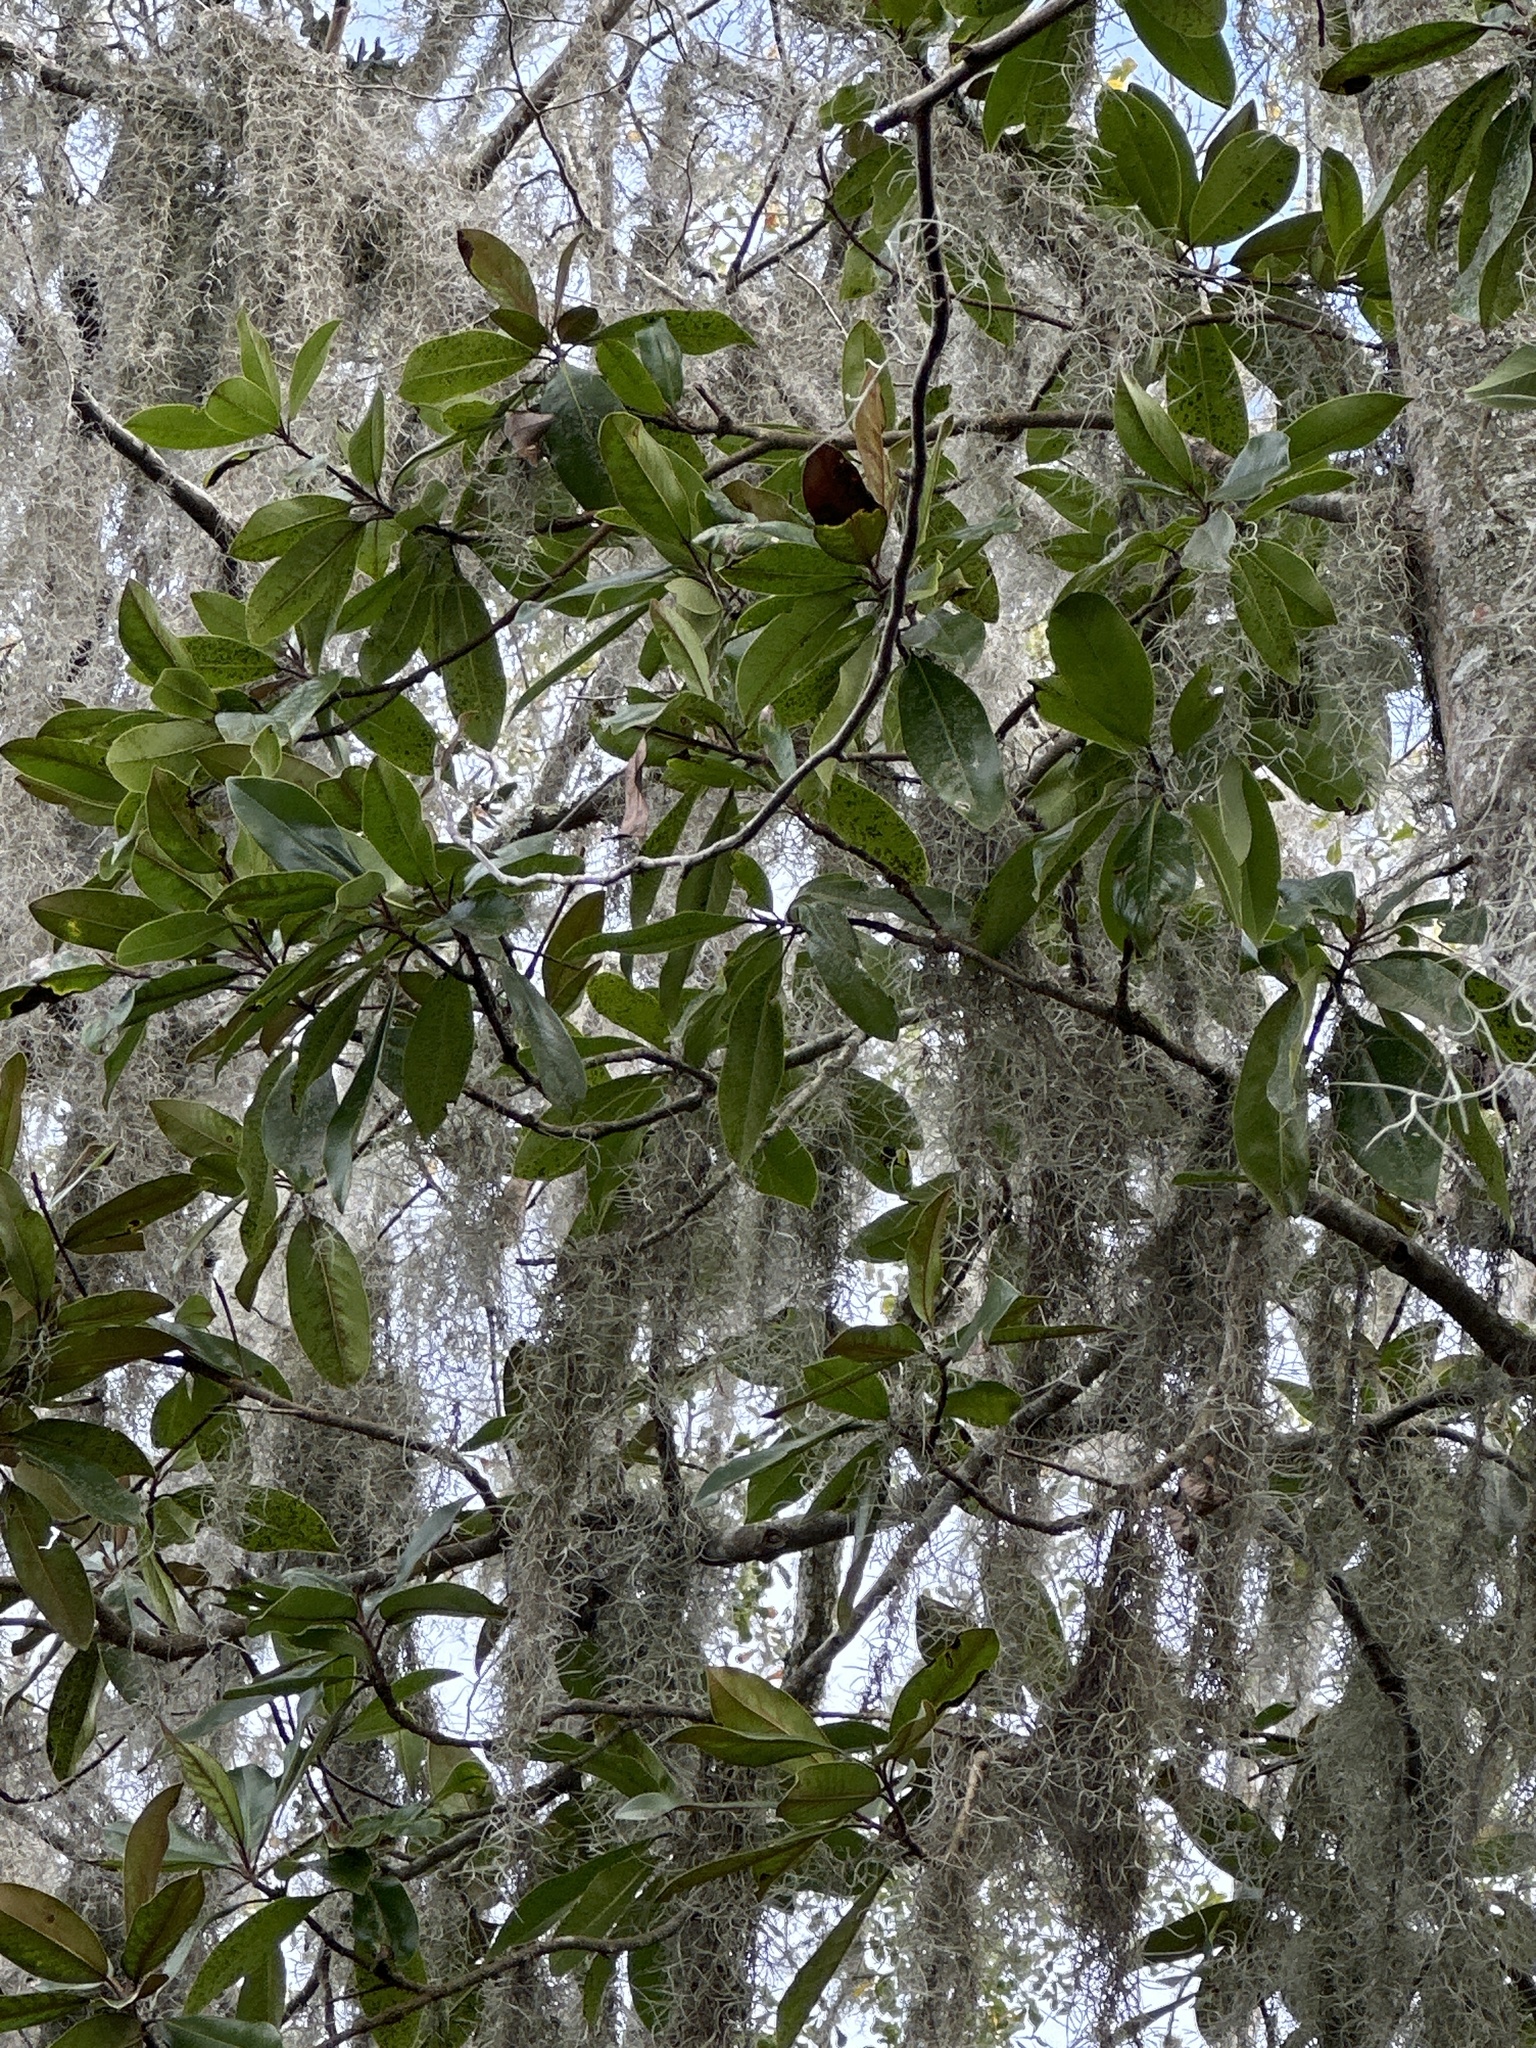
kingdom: Plantae
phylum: Tracheophyta
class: Magnoliopsida
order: Magnoliales
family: Magnoliaceae
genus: Magnolia
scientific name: Magnolia grandiflora
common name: Southern magnolia
